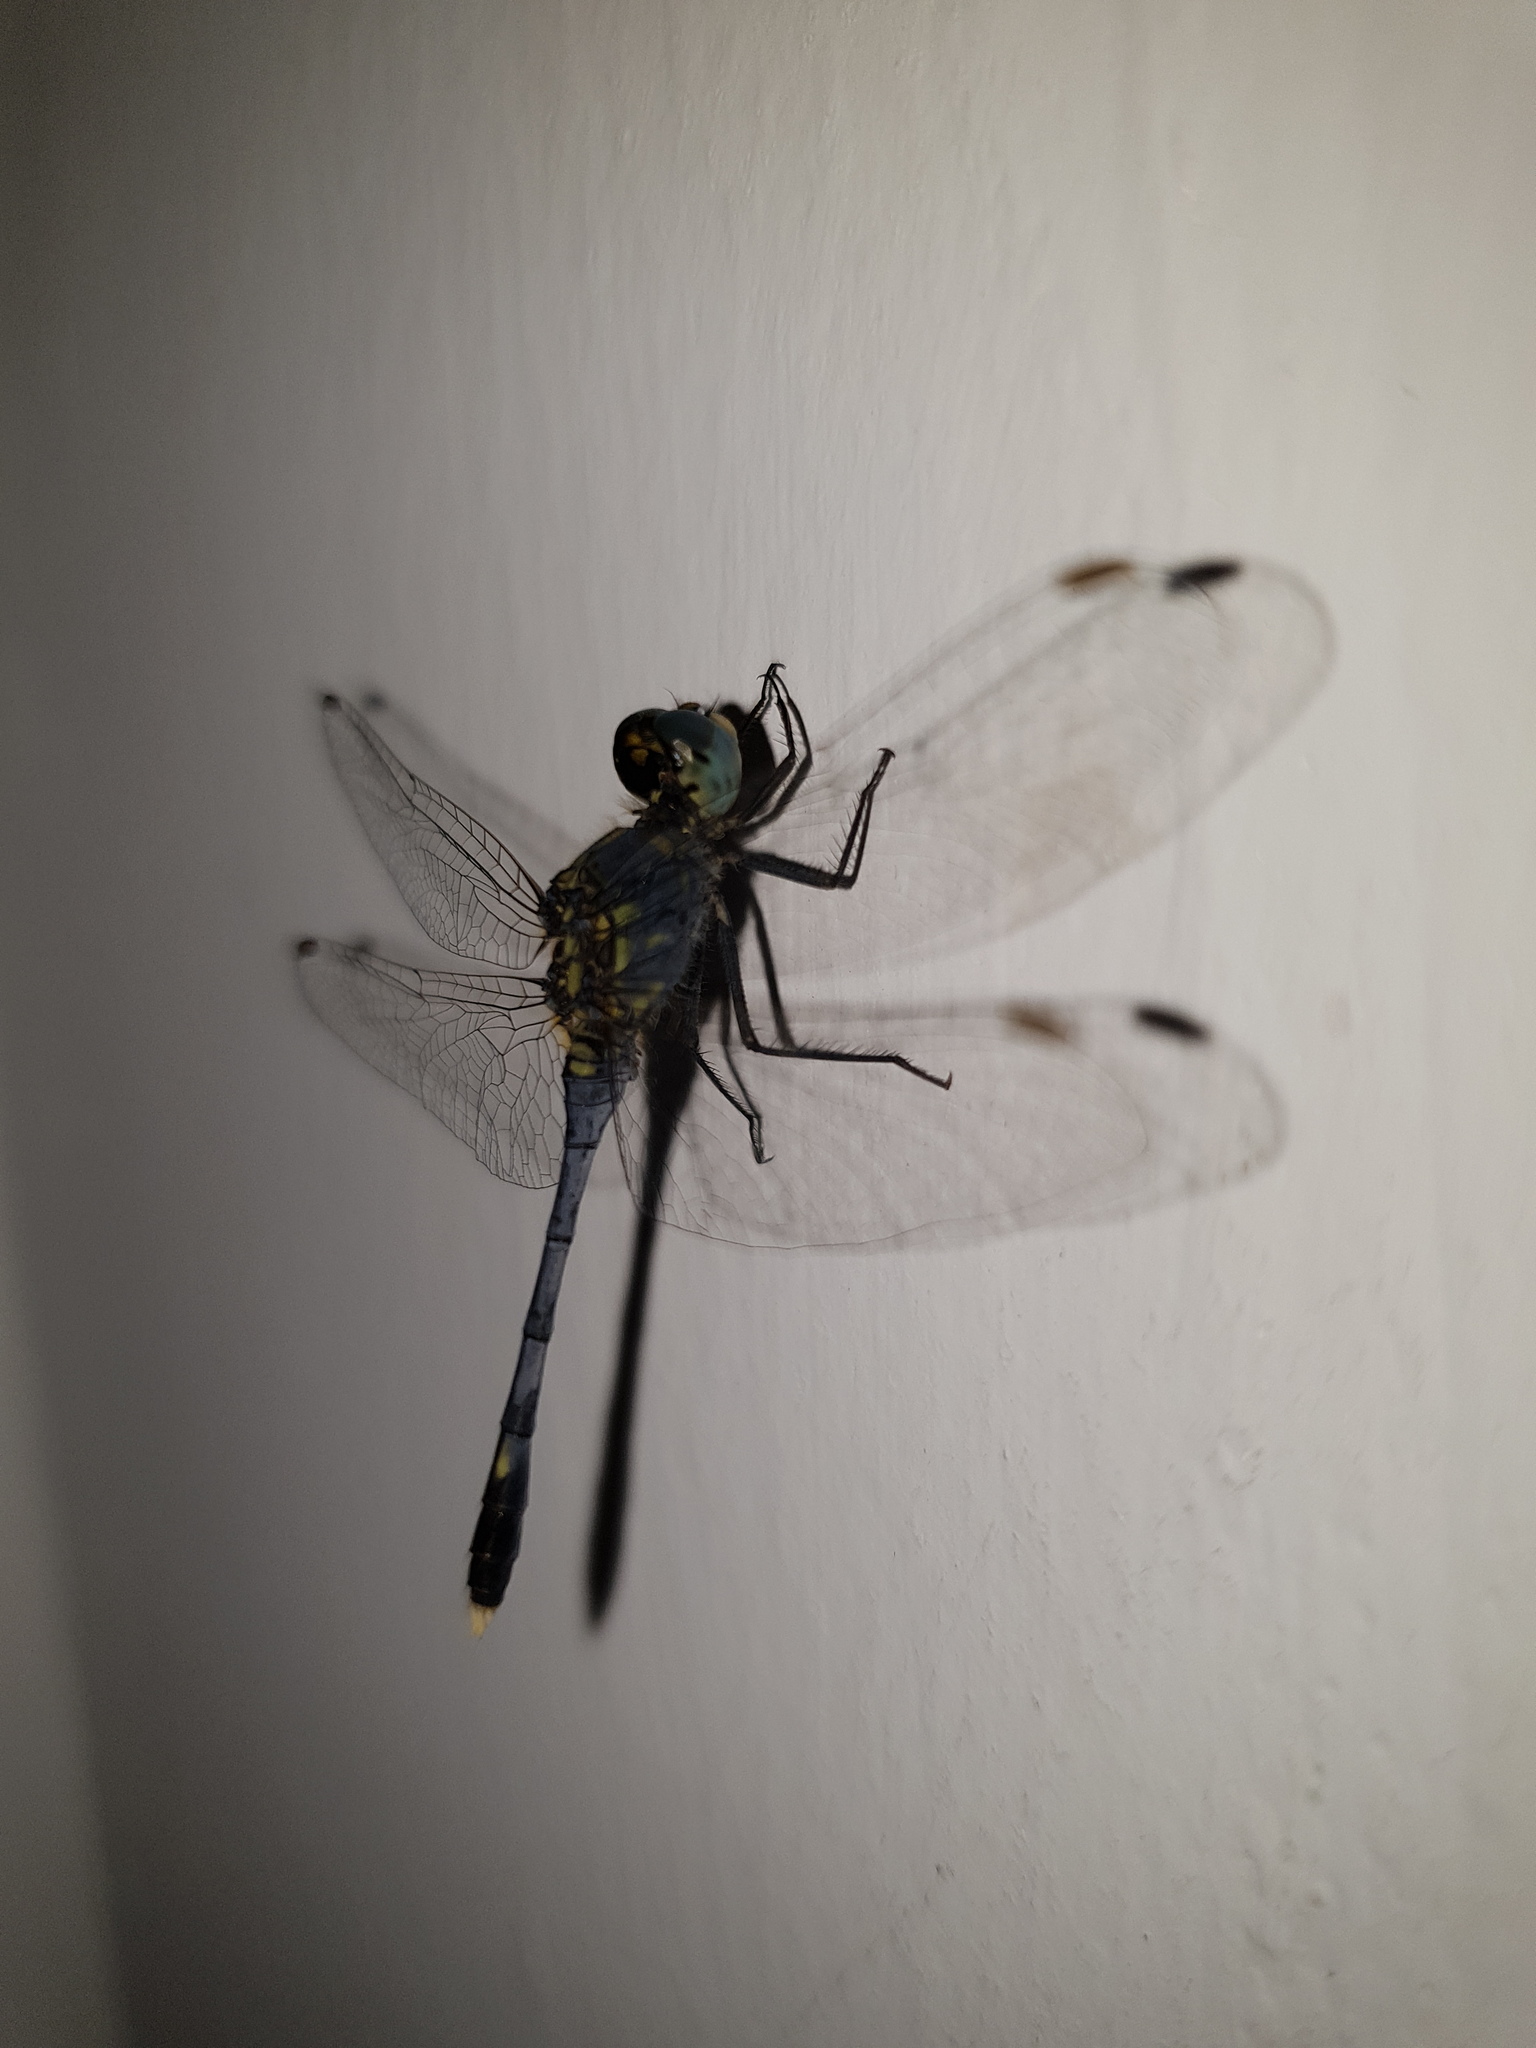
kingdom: Animalia
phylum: Arthropoda
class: Insecta
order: Odonata
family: Libellulidae
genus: Diplacodes
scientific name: Diplacodes trivialis
